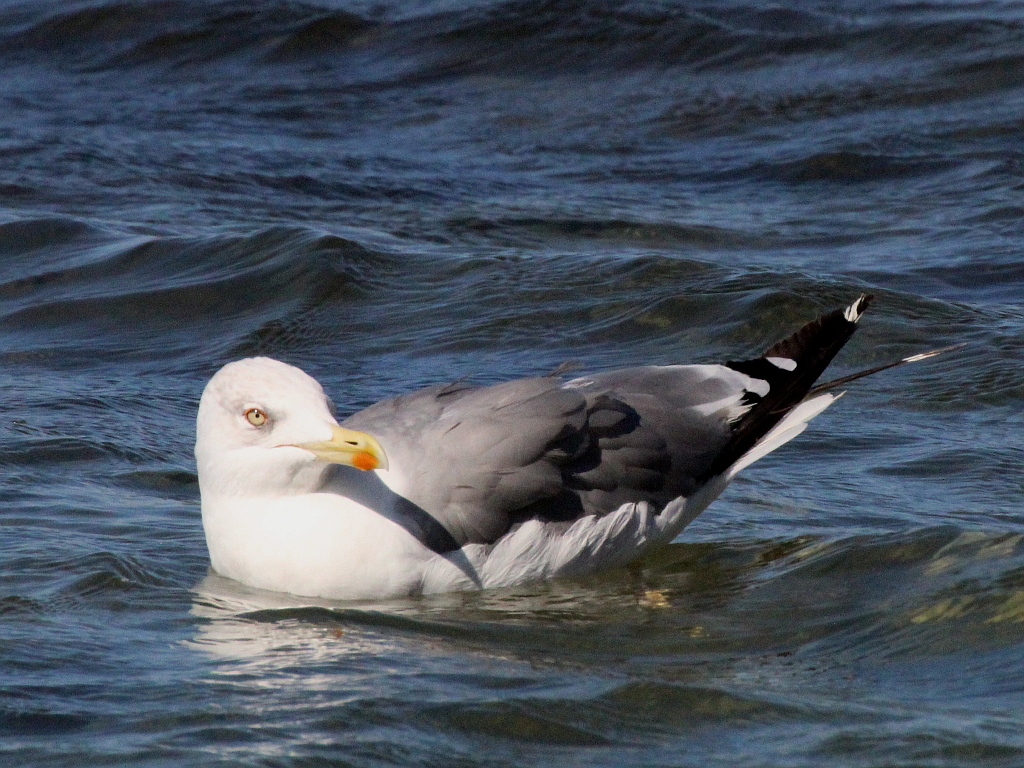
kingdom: Animalia
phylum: Chordata
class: Aves
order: Charadriiformes
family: Laridae
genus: Larus
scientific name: Larus michahellis
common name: Yellow-legged gull
